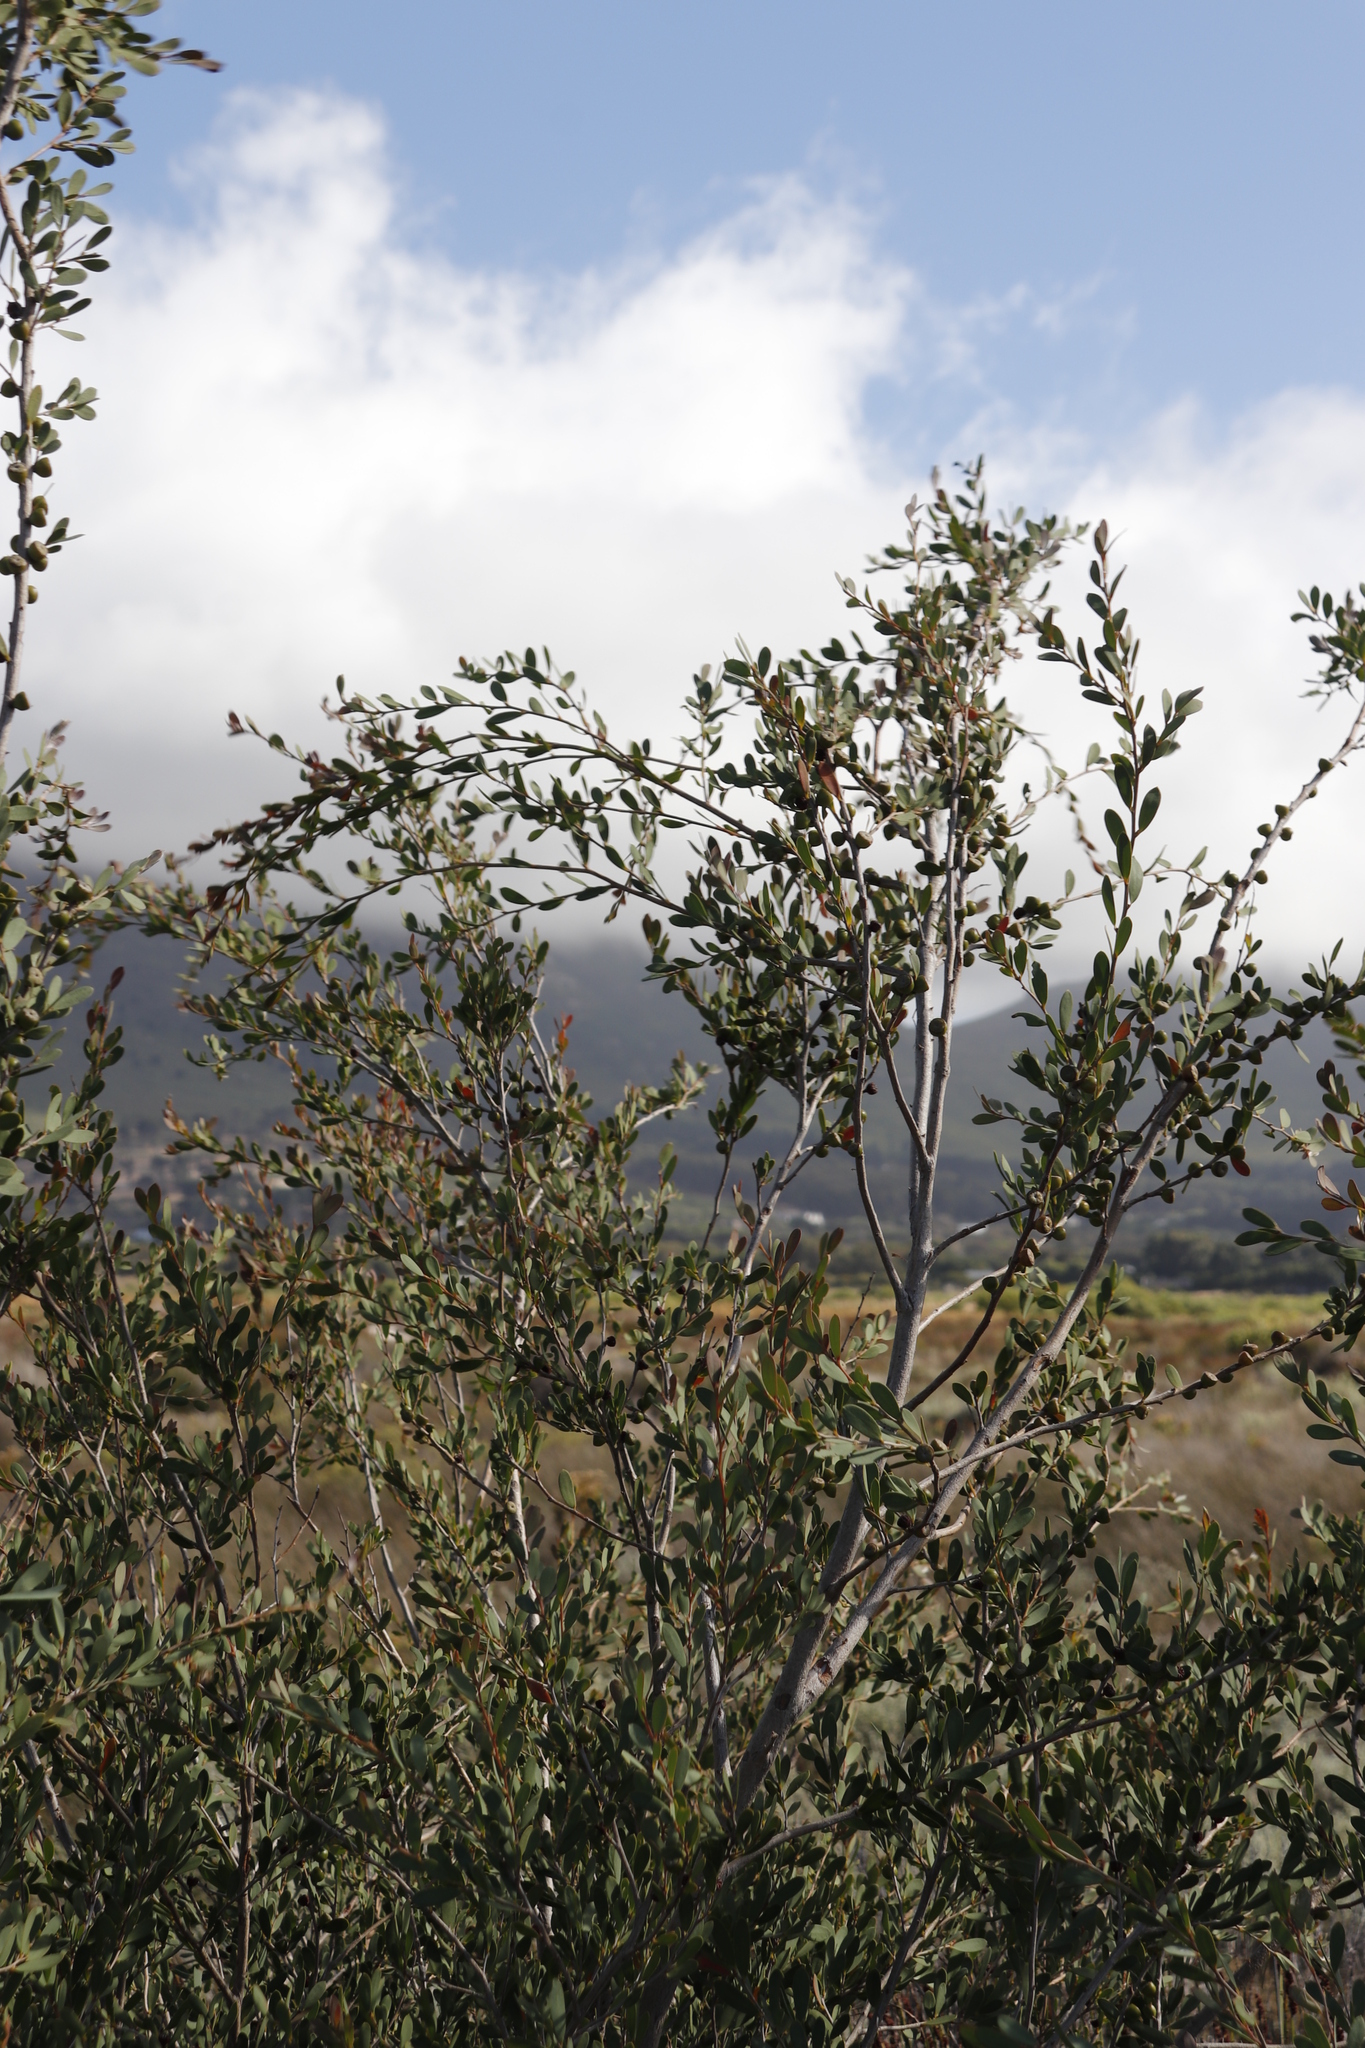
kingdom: Plantae
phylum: Tracheophyta
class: Magnoliopsida
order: Myrtales
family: Myrtaceae
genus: Leptospermum
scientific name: Leptospermum laevigatum
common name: Australian teatree
